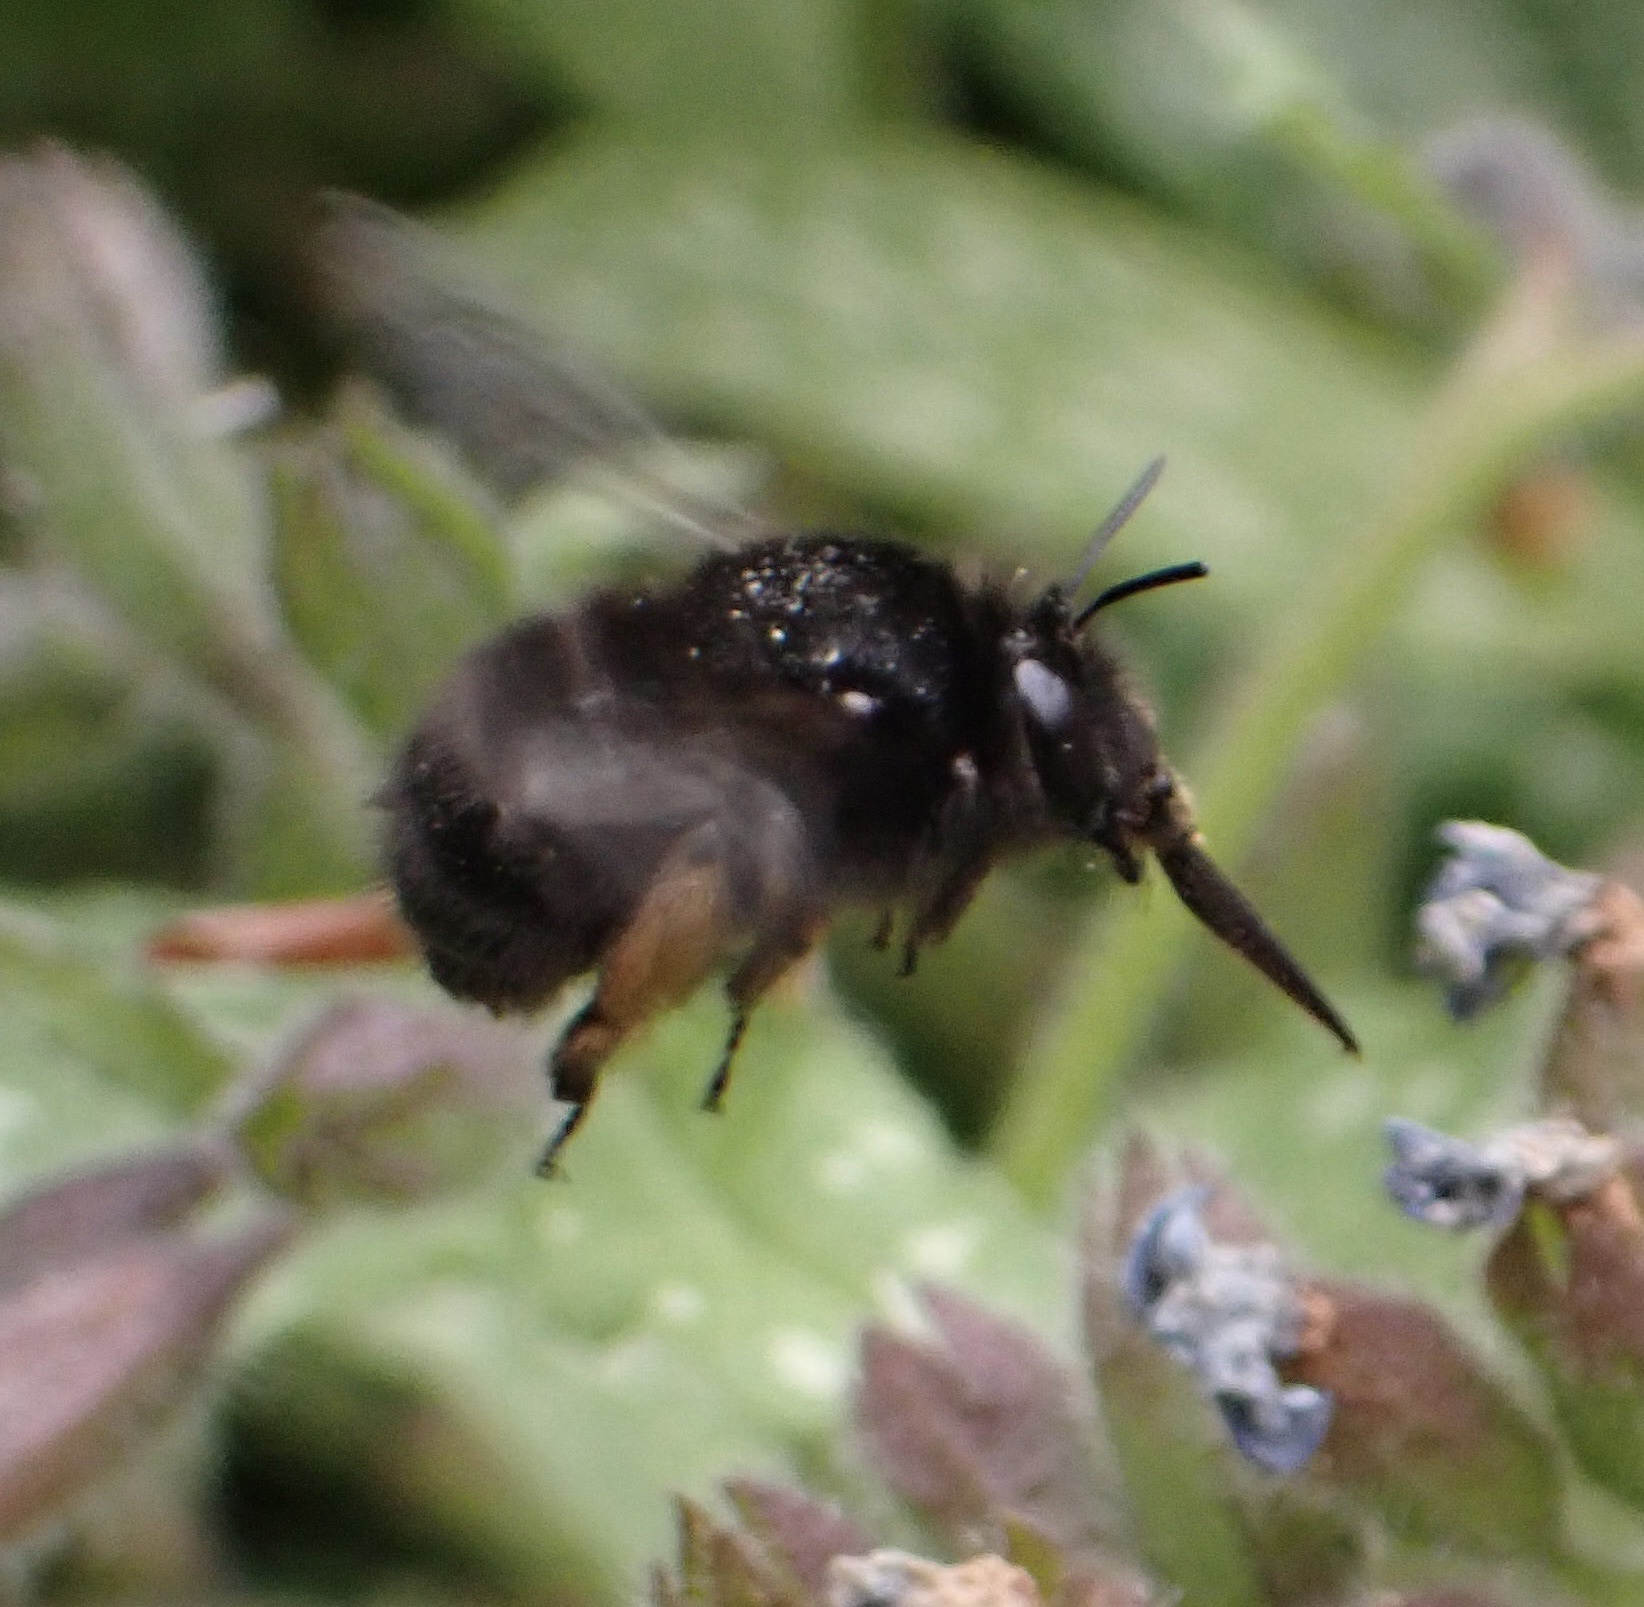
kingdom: Animalia
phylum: Arthropoda
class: Insecta
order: Hymenoptera
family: Apidae
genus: Anthophora
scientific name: Anthophora plumipes
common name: Hairy-footed flower bee
